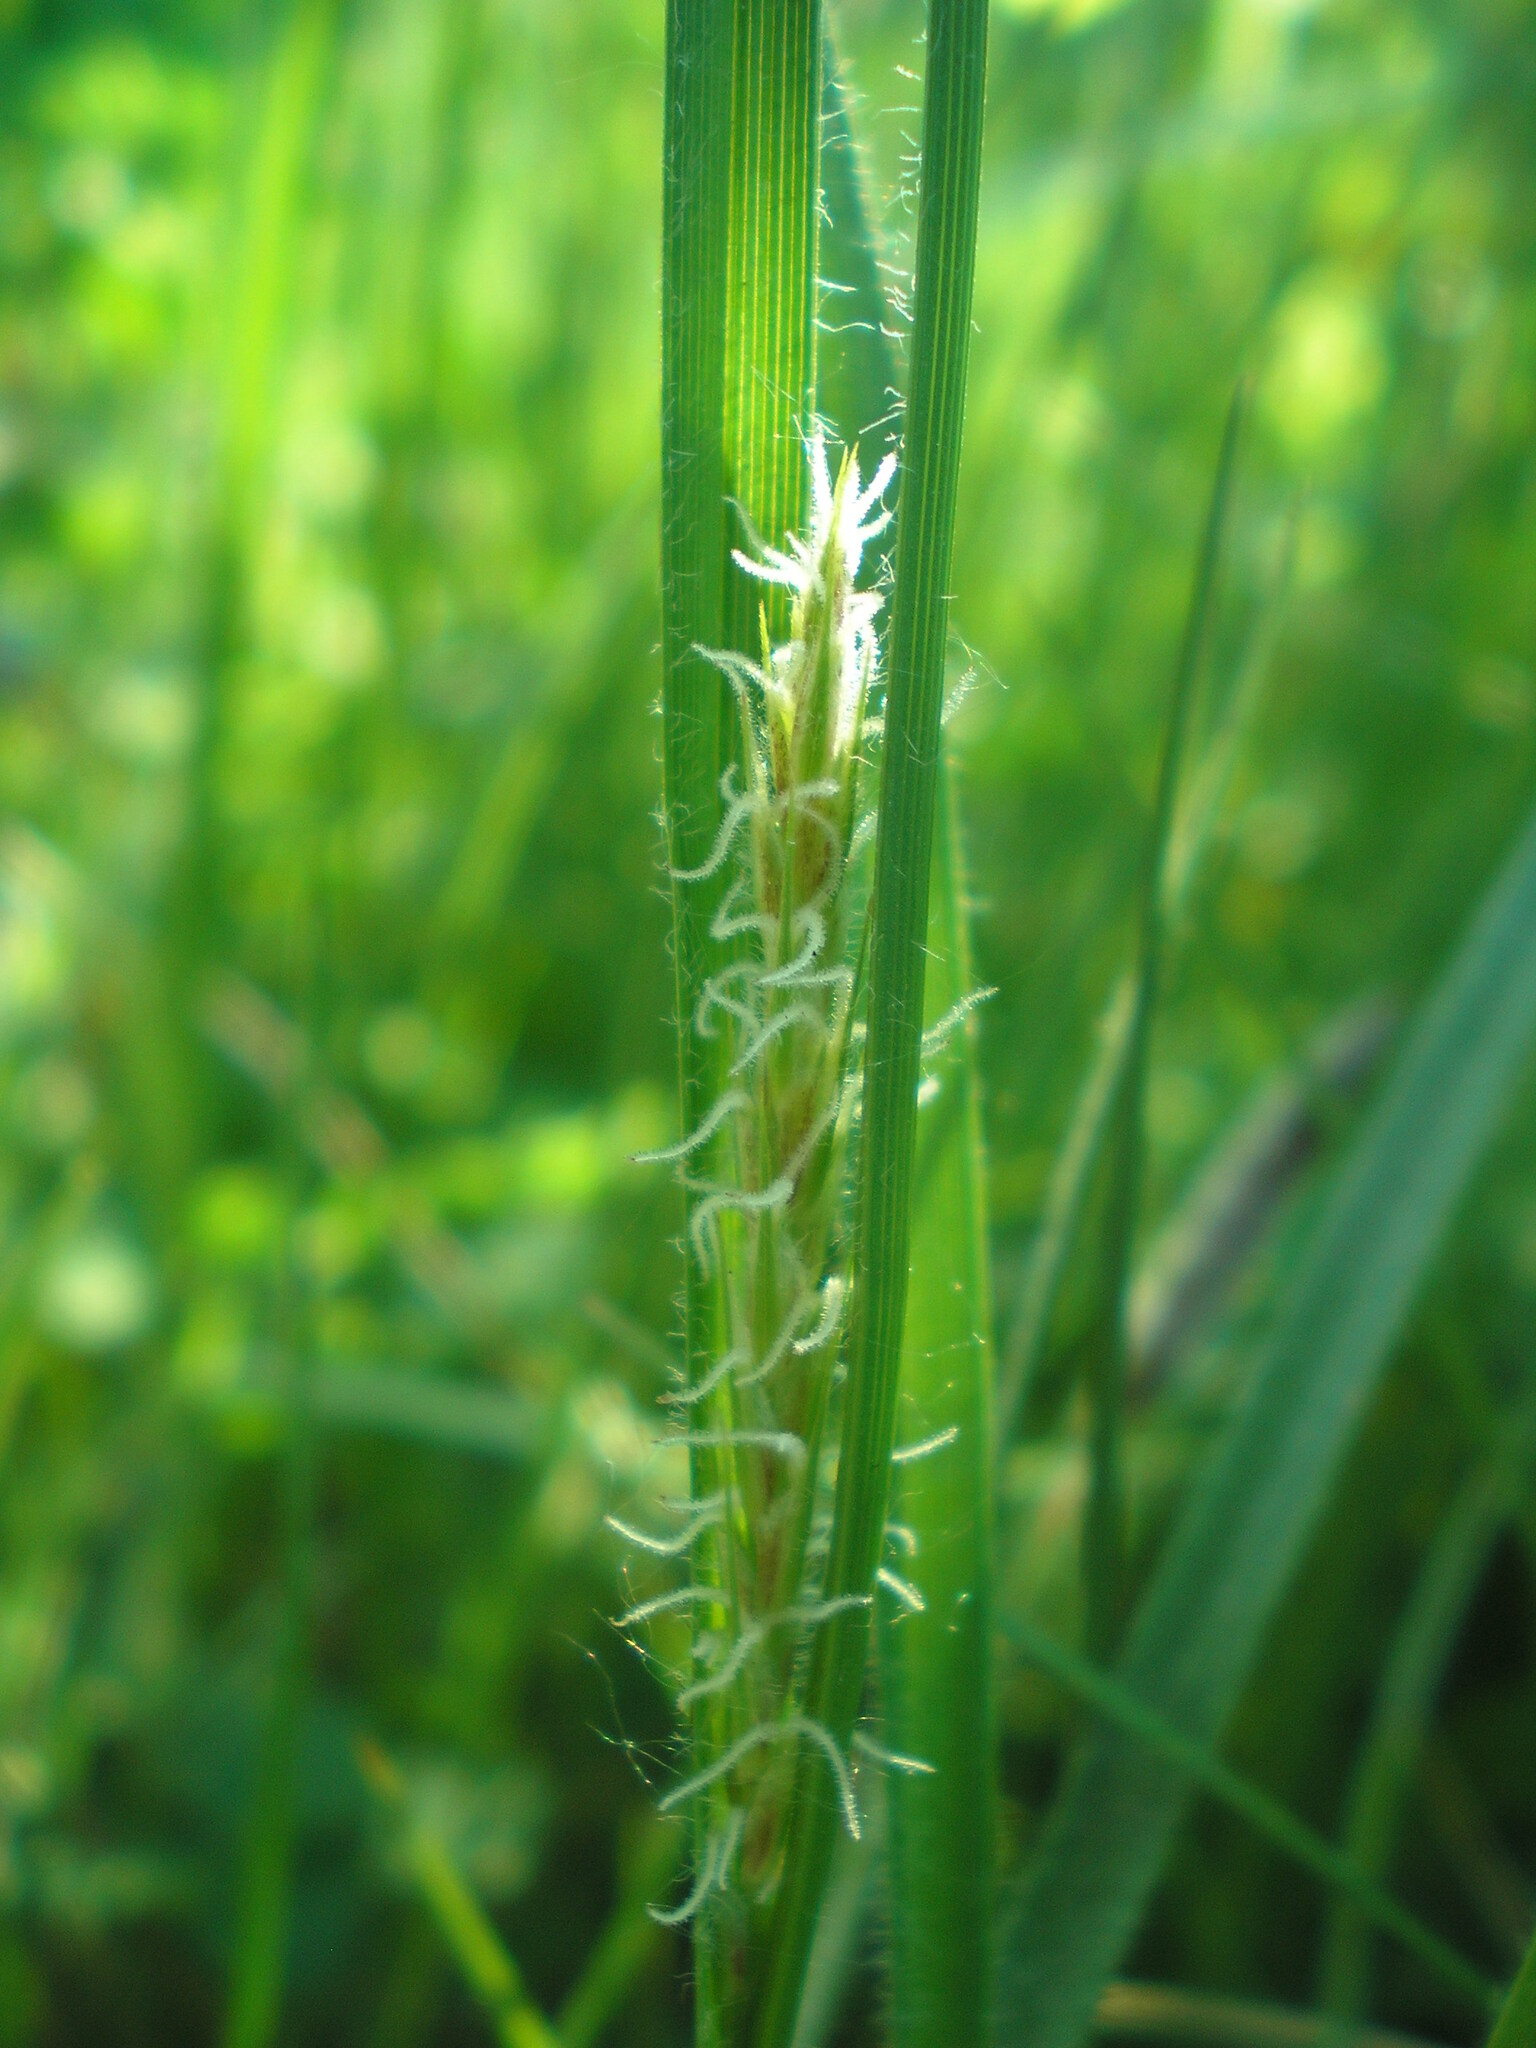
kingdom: Plantae
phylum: Tracheophyta
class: Liliopsida
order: Poales
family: Cyperaceae
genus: Carex
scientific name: Carex hirta
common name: Hairy sedge
